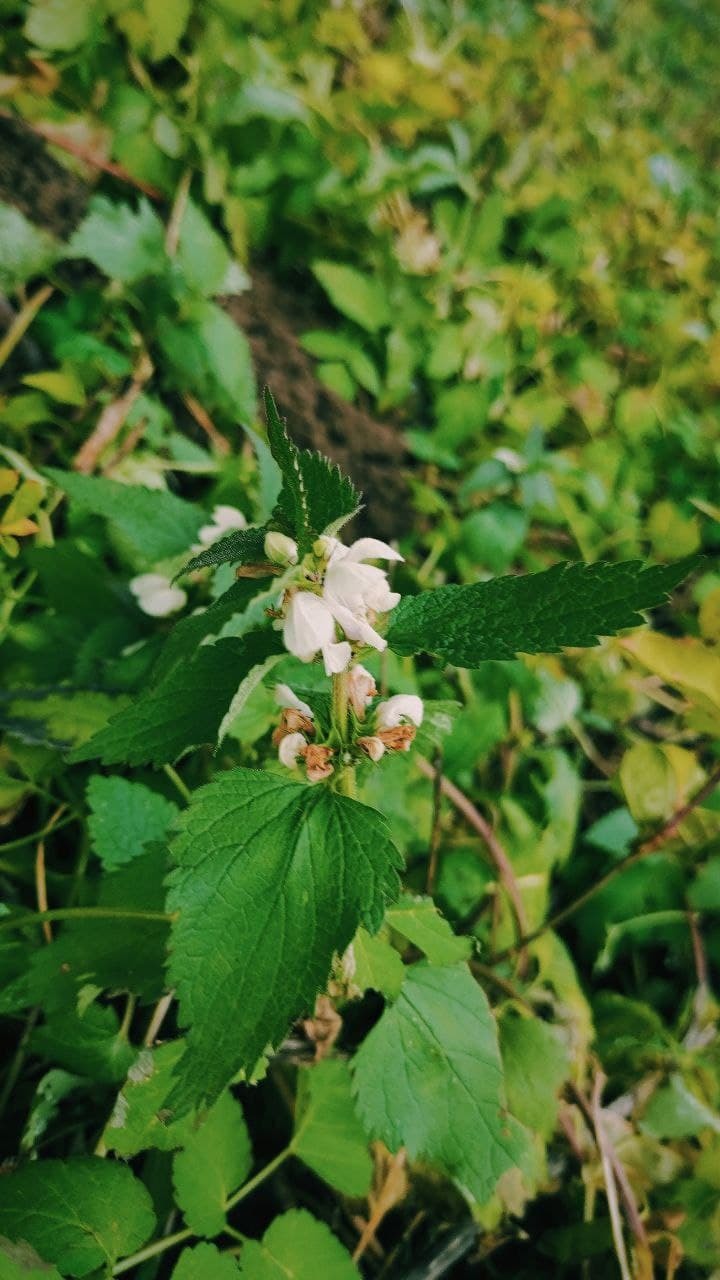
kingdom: Plantae
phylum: Tracheophyta
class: Magnoliopsida
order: Lamiales
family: Lamiaceae
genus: Lamium
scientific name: Lamium album
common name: White dead-nettle
